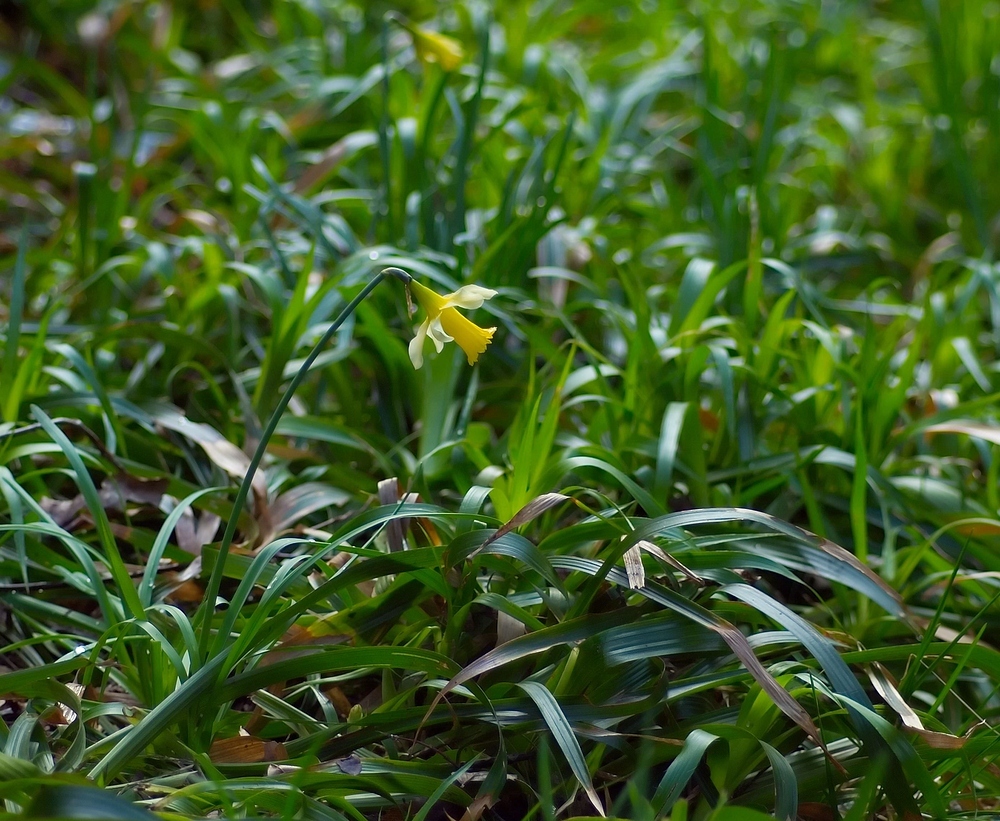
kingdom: Plantae
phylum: Tracheophyta
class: Liliopsida
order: Asparagales
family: Amaryllidaceae
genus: Narcissus
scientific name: Narcissus pseudonarcissus
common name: Daffodil
